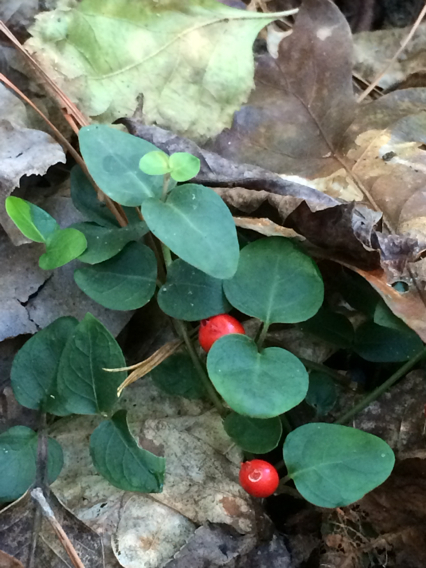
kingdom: Plantae
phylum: Tracheophyta
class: Magnoliopsida
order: Gentianales
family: Rubiaceae
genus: Mitchella
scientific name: Mitchella repens
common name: Partridge-berry
